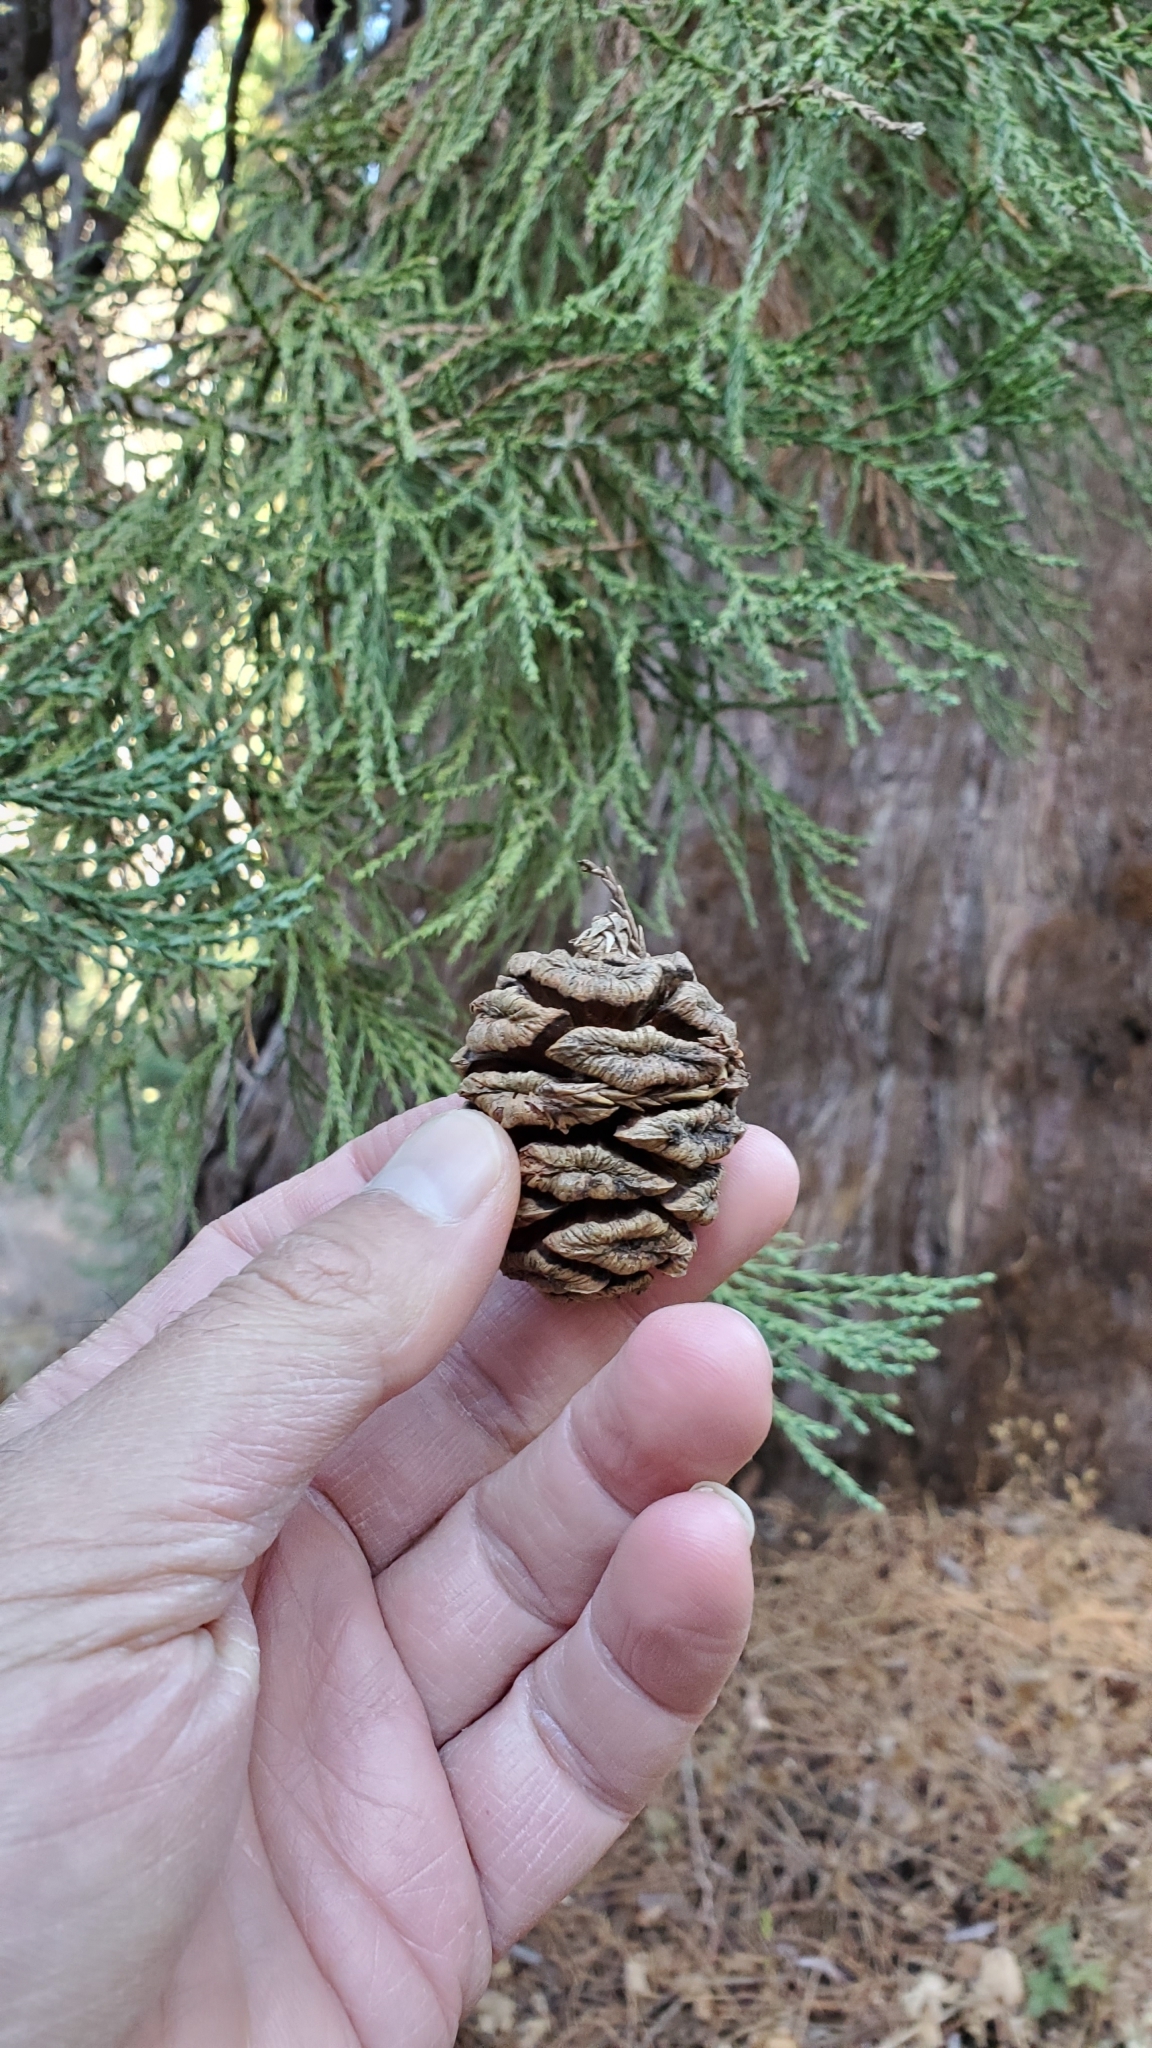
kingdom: Plantae
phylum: Tracheophyta
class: Pinopsida
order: Pinales
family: Cupressaceae
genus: Sequoiadendron
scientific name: Sequoiadendron giganteum
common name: Wellingtonia
